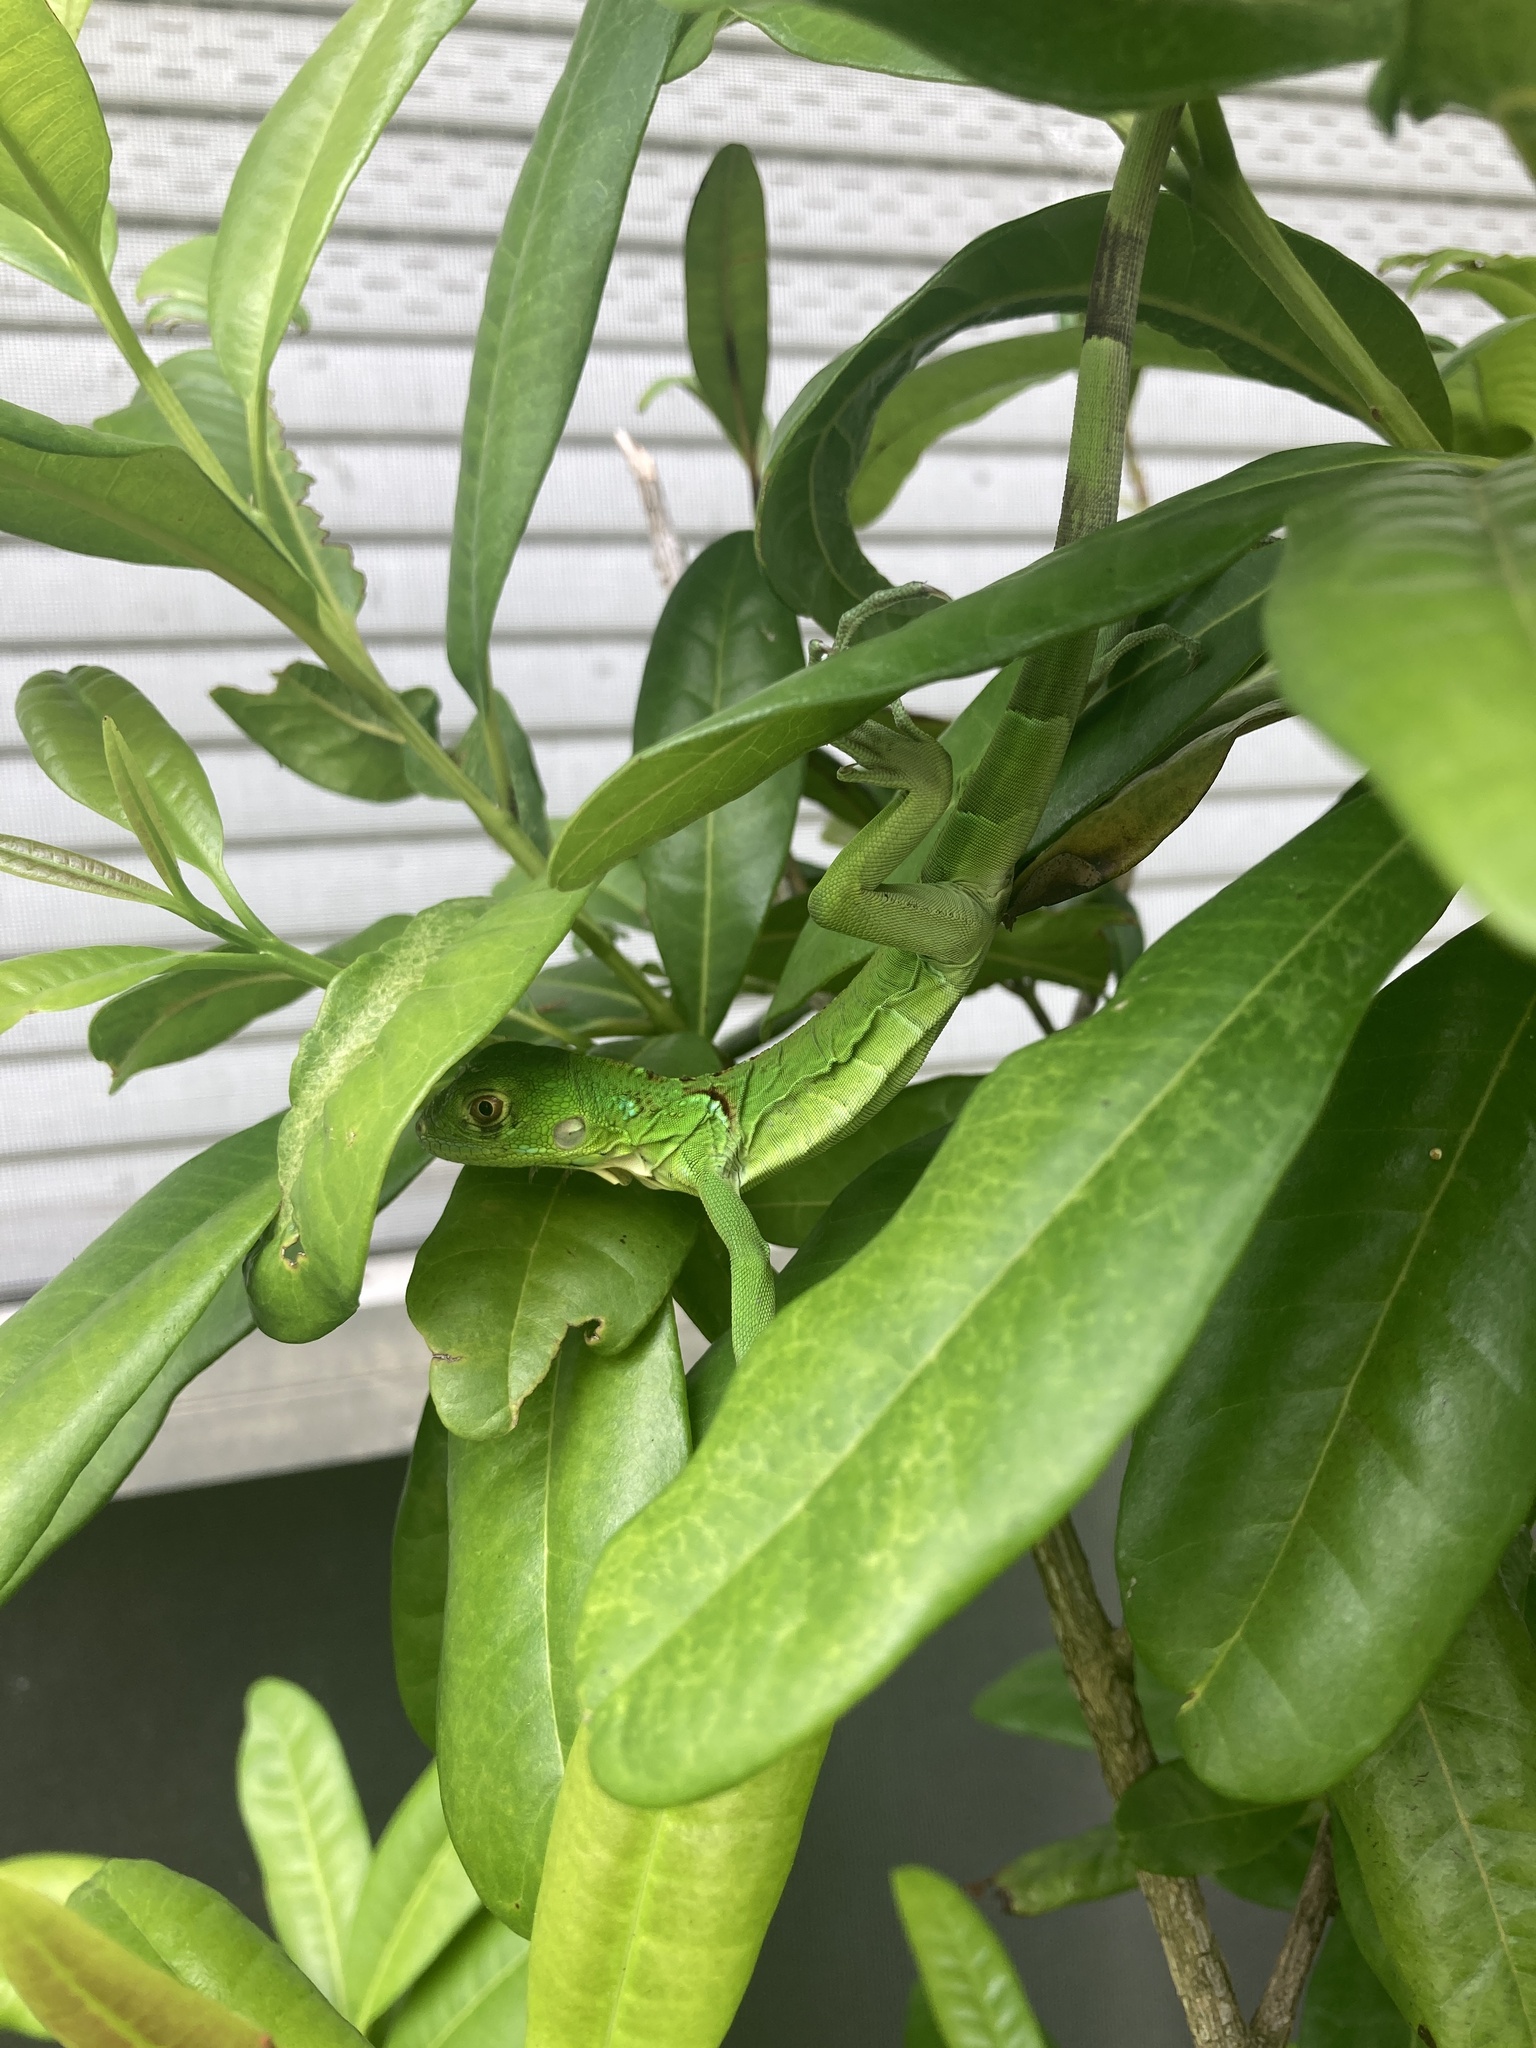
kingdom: Animalia
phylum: Chordata
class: Squamata
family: Iguanidae
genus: Iguana
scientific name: Iguana iguana
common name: Green iguana
